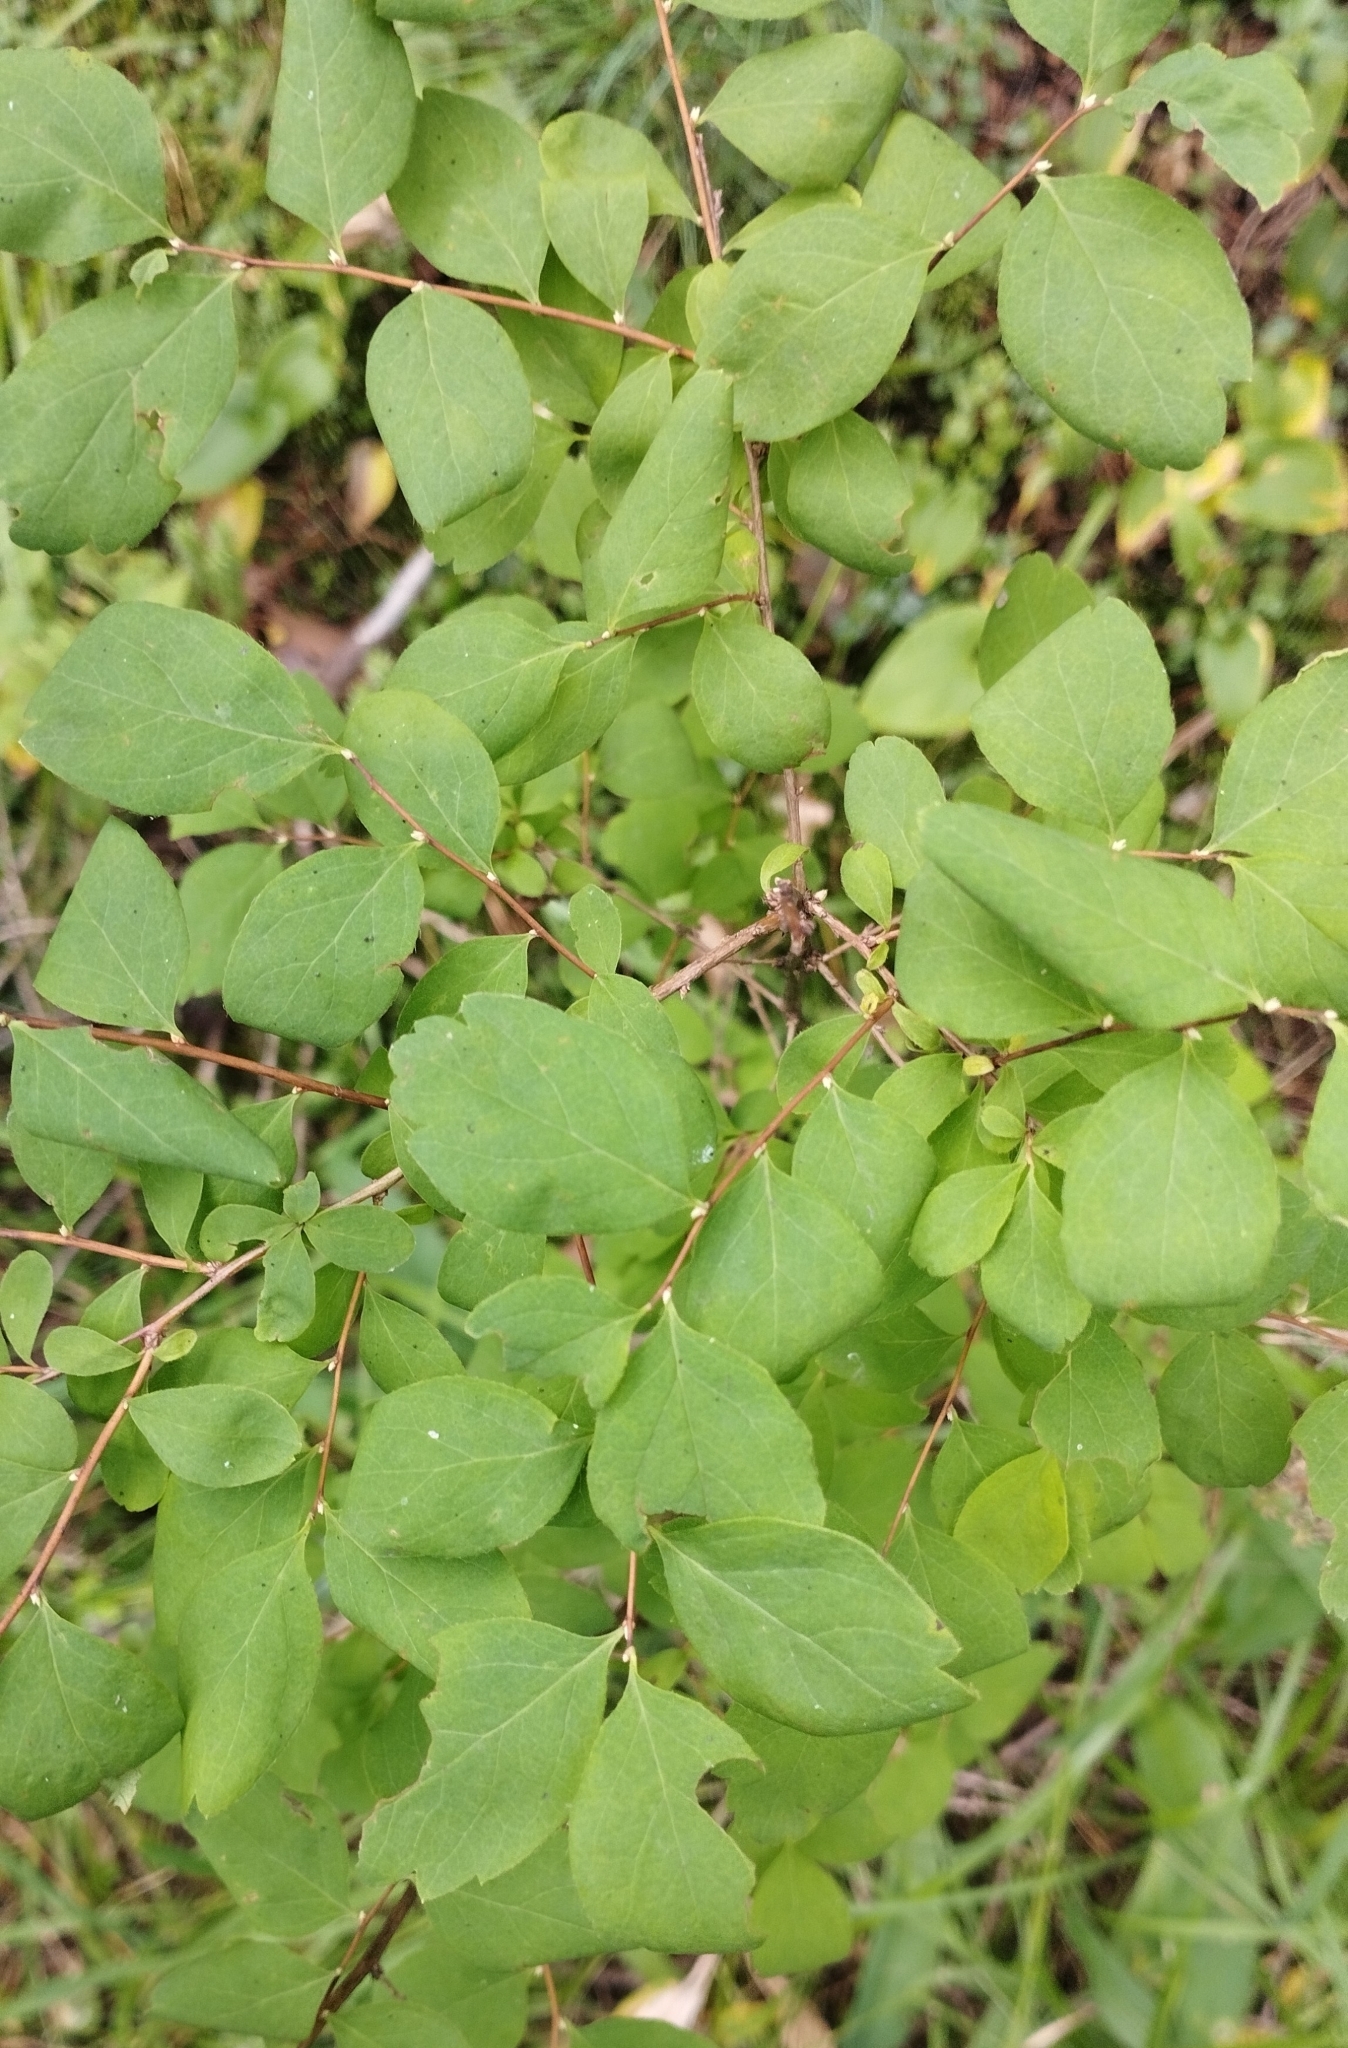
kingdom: Plantae
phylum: Tracheophyta
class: Magnoliopsida
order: Rosales
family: Rosaceae
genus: Spiraea
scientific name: Spiraea media
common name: Russian spiraea
